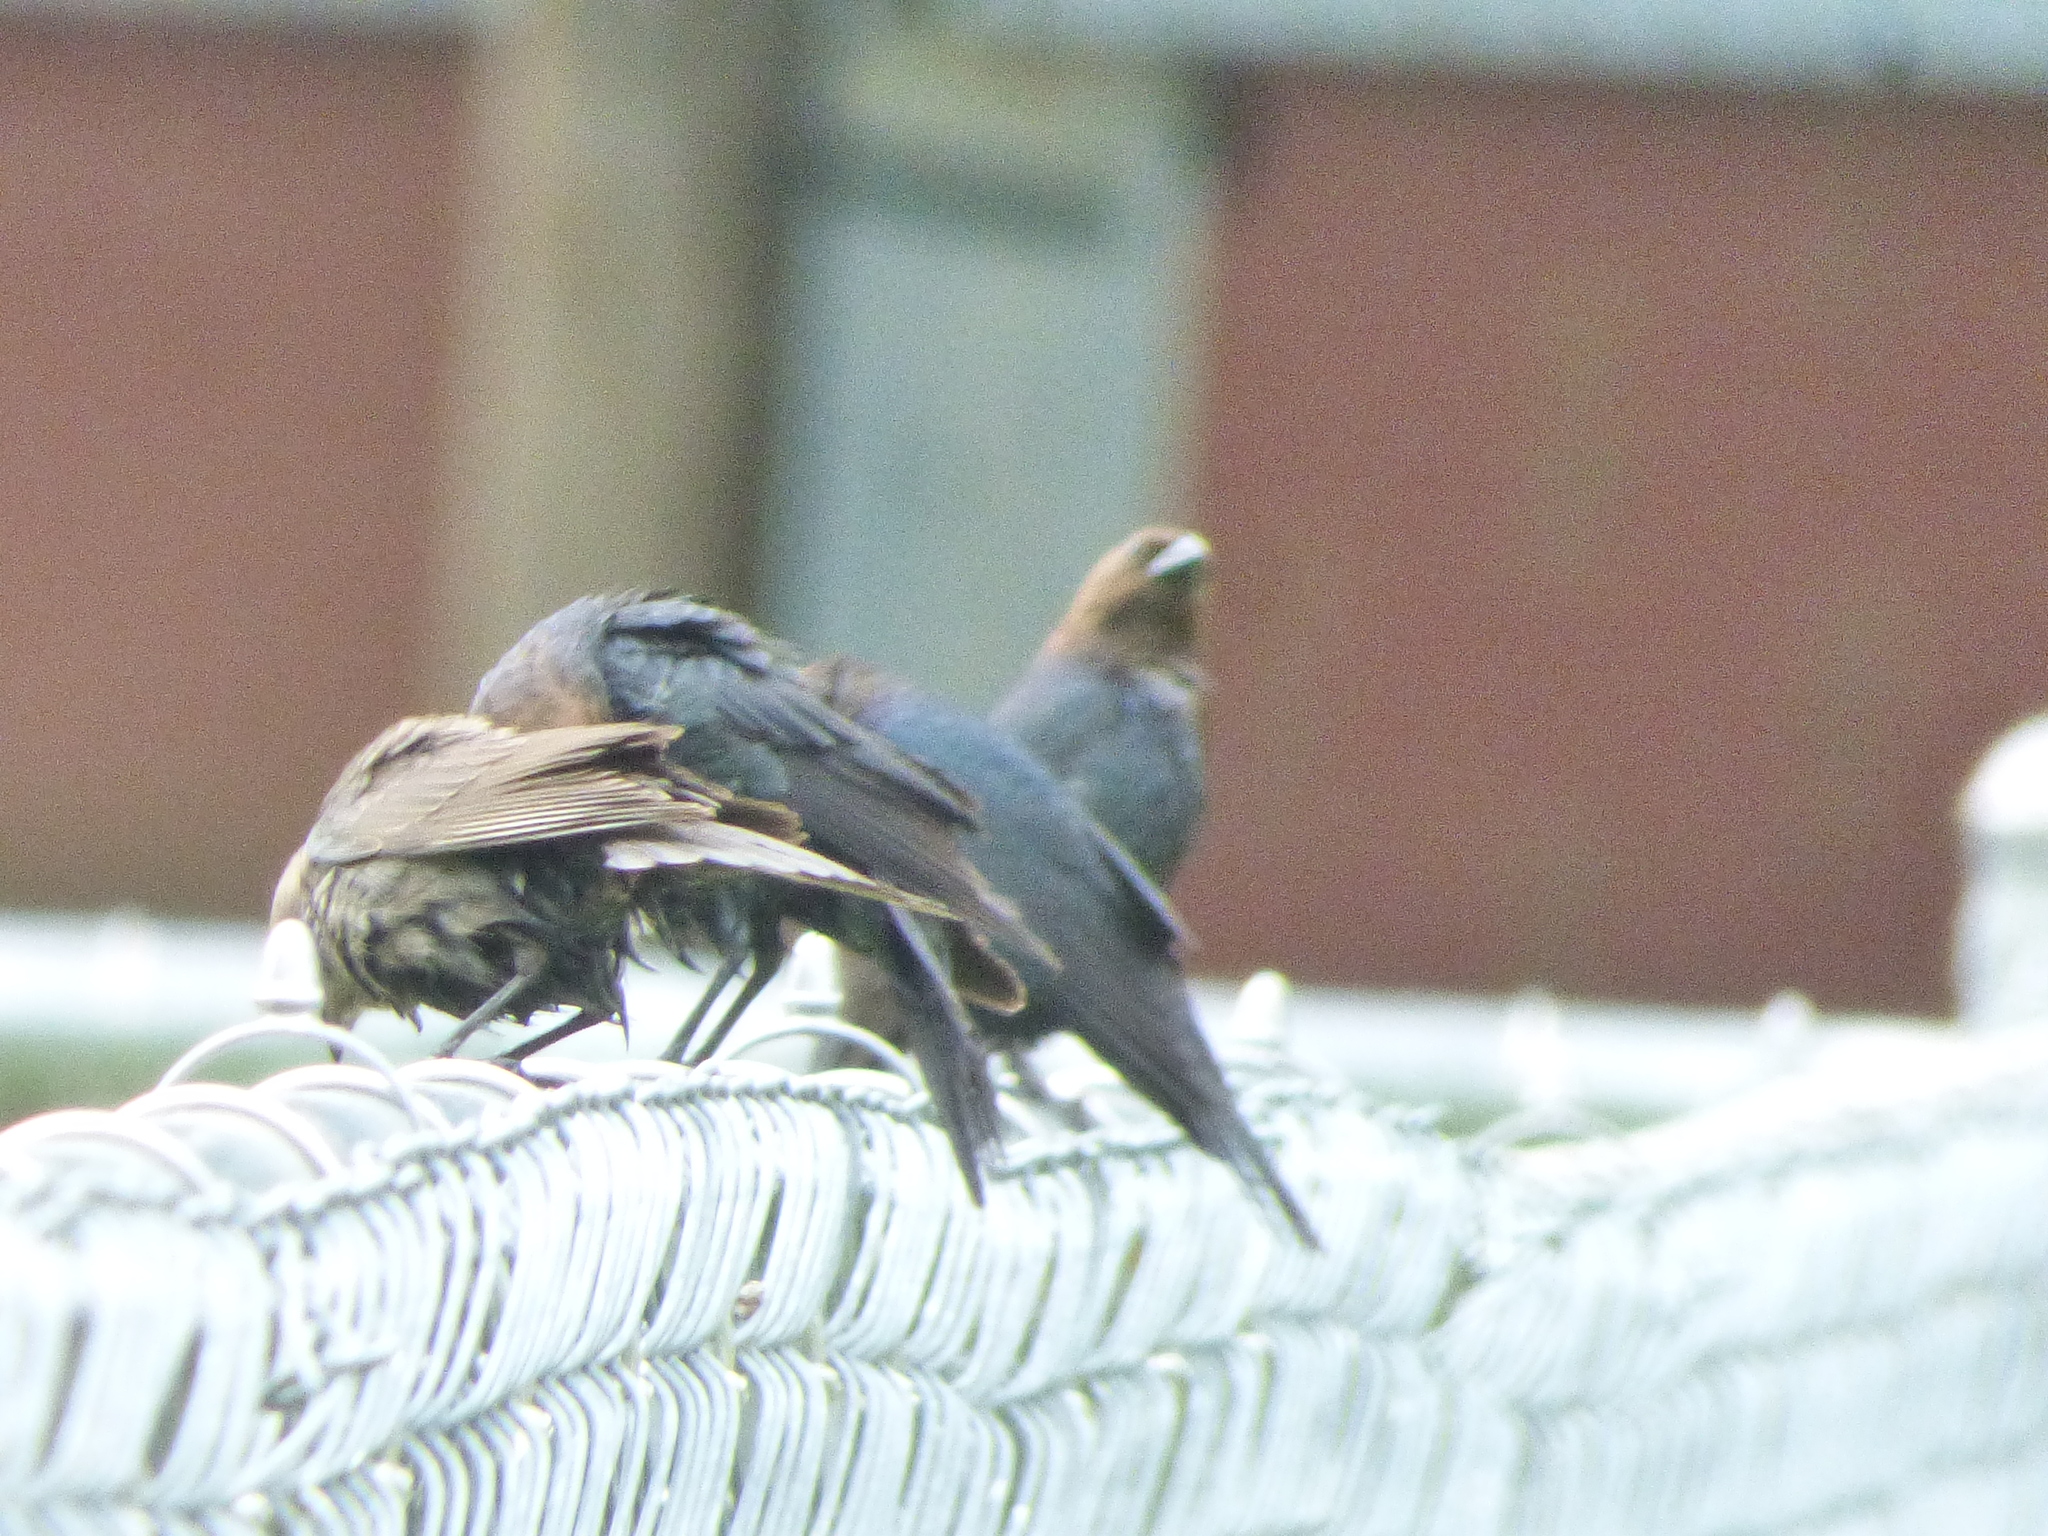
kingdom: Animalia
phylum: Chordata
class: Aves
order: Passeriformes
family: Icteridae
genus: Molothrus
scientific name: Molothrus ater
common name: Brown-headed cowbird
